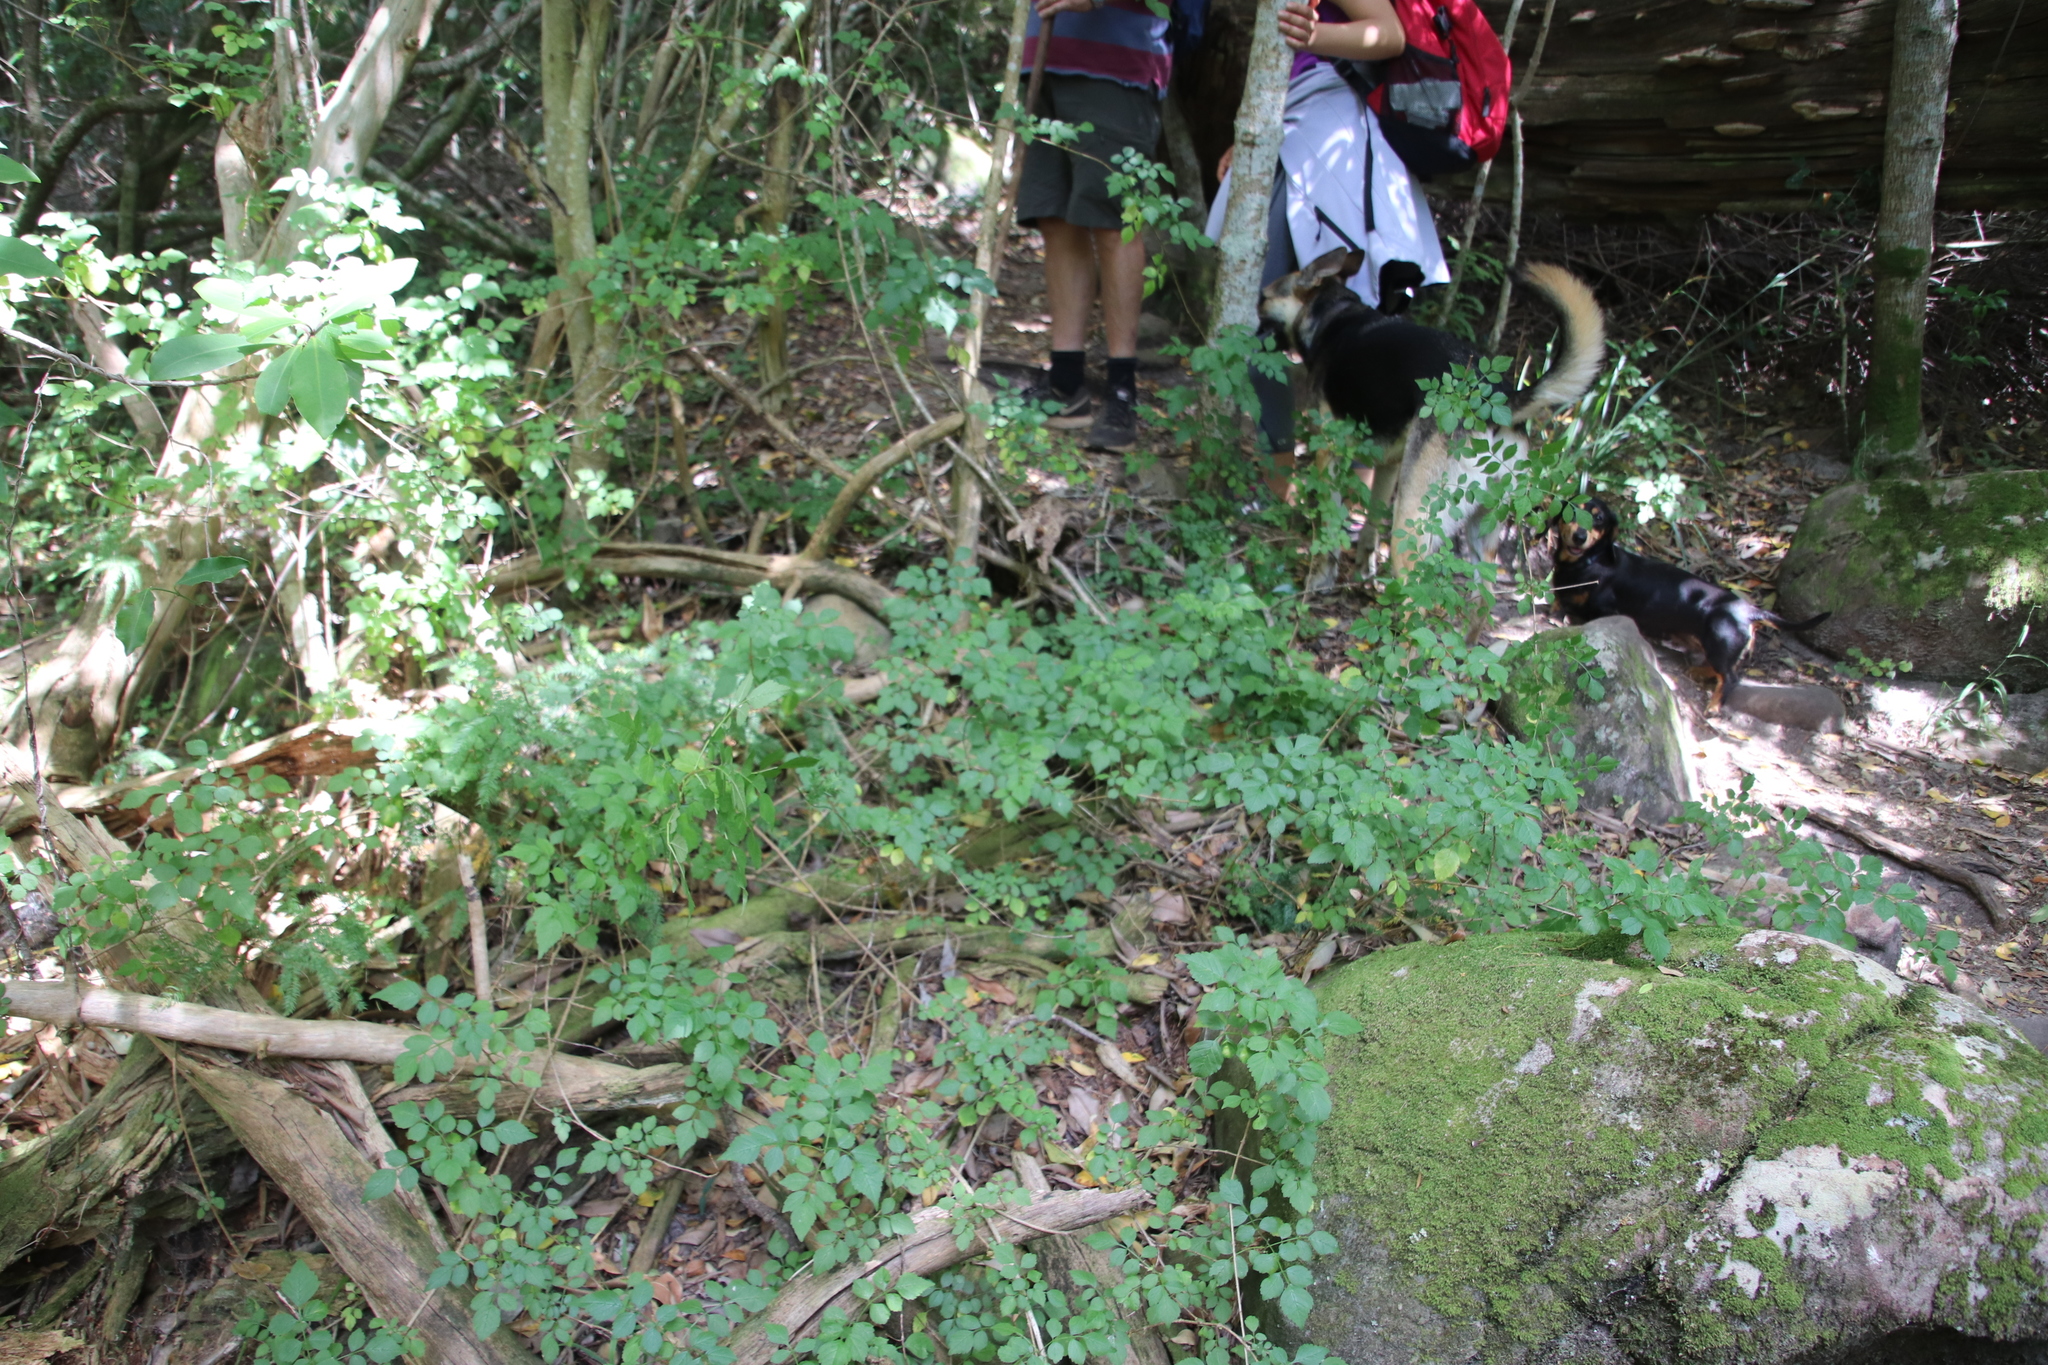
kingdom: Plantae
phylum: Tracheophyta
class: Magnoliopsida
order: Lamiales
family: Bignoniaceae
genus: Tecomaria
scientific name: Tecomaria capensis
